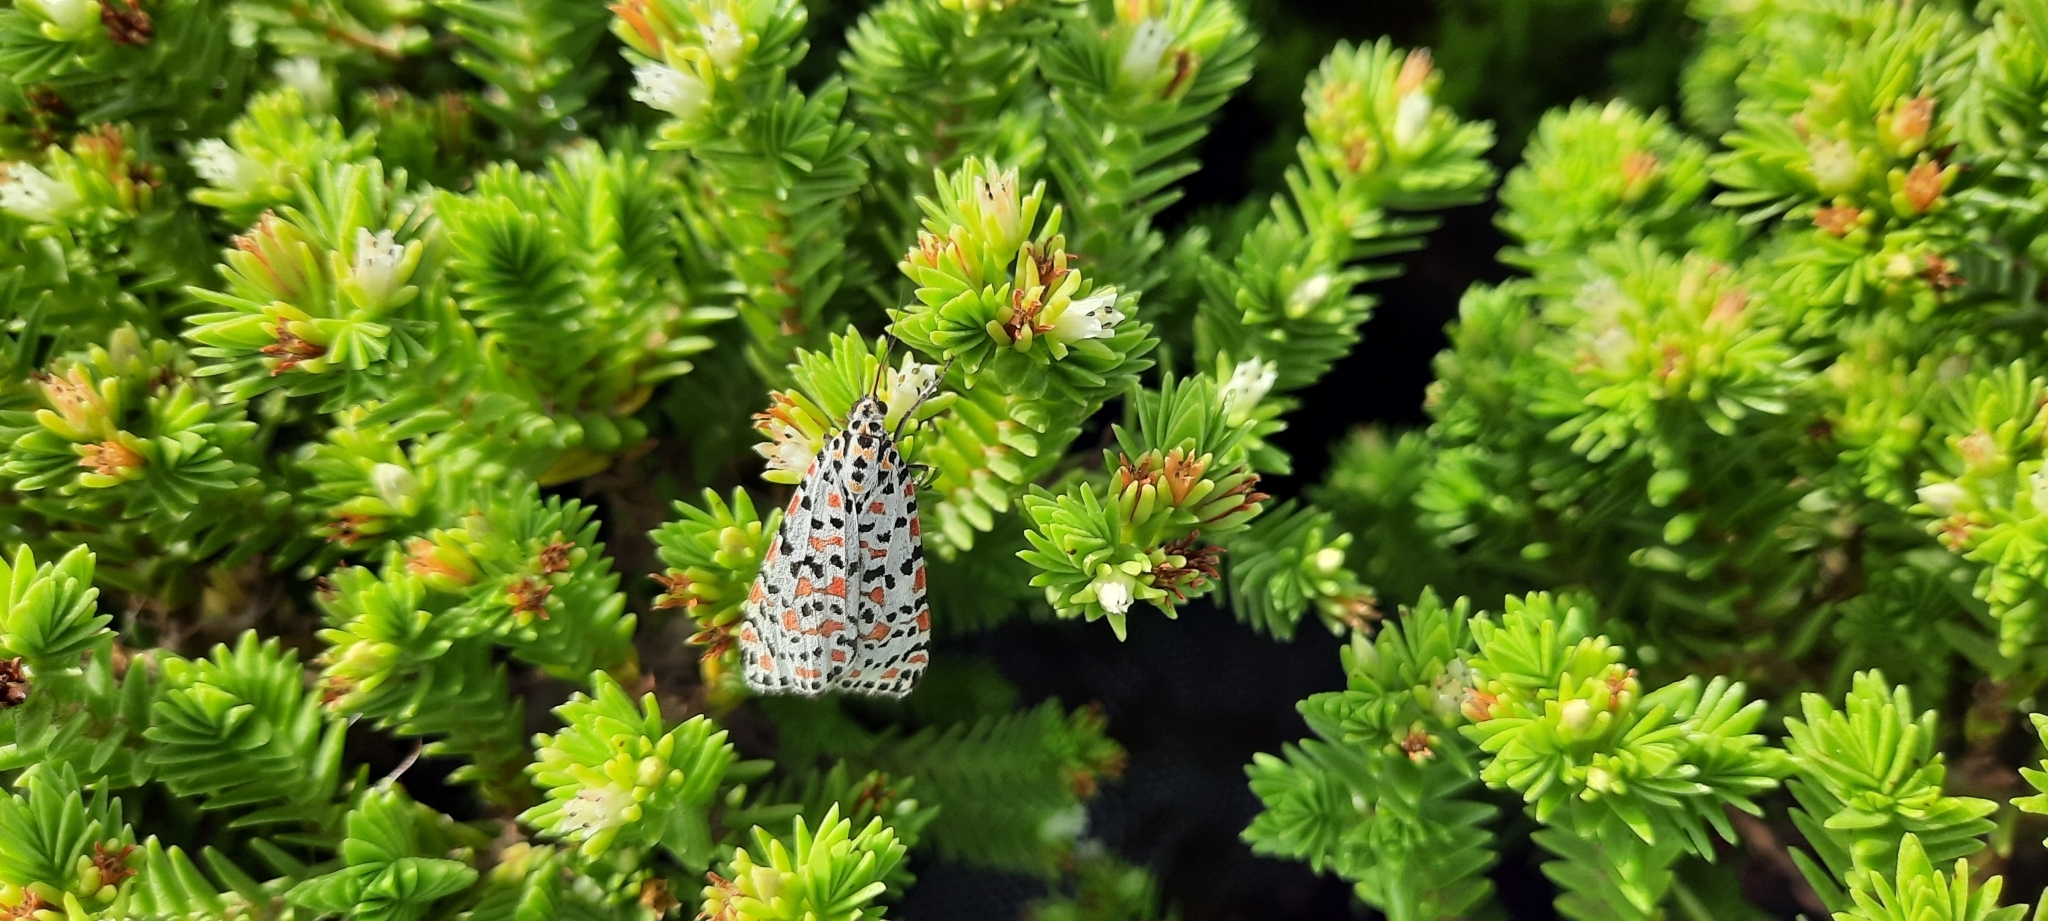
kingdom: Animalia
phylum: Arthropoda
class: Insecta
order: Lepidoptera
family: Erebidae
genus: Utetheisa
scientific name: Utetheisa pulchella
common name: Crimson speckled
